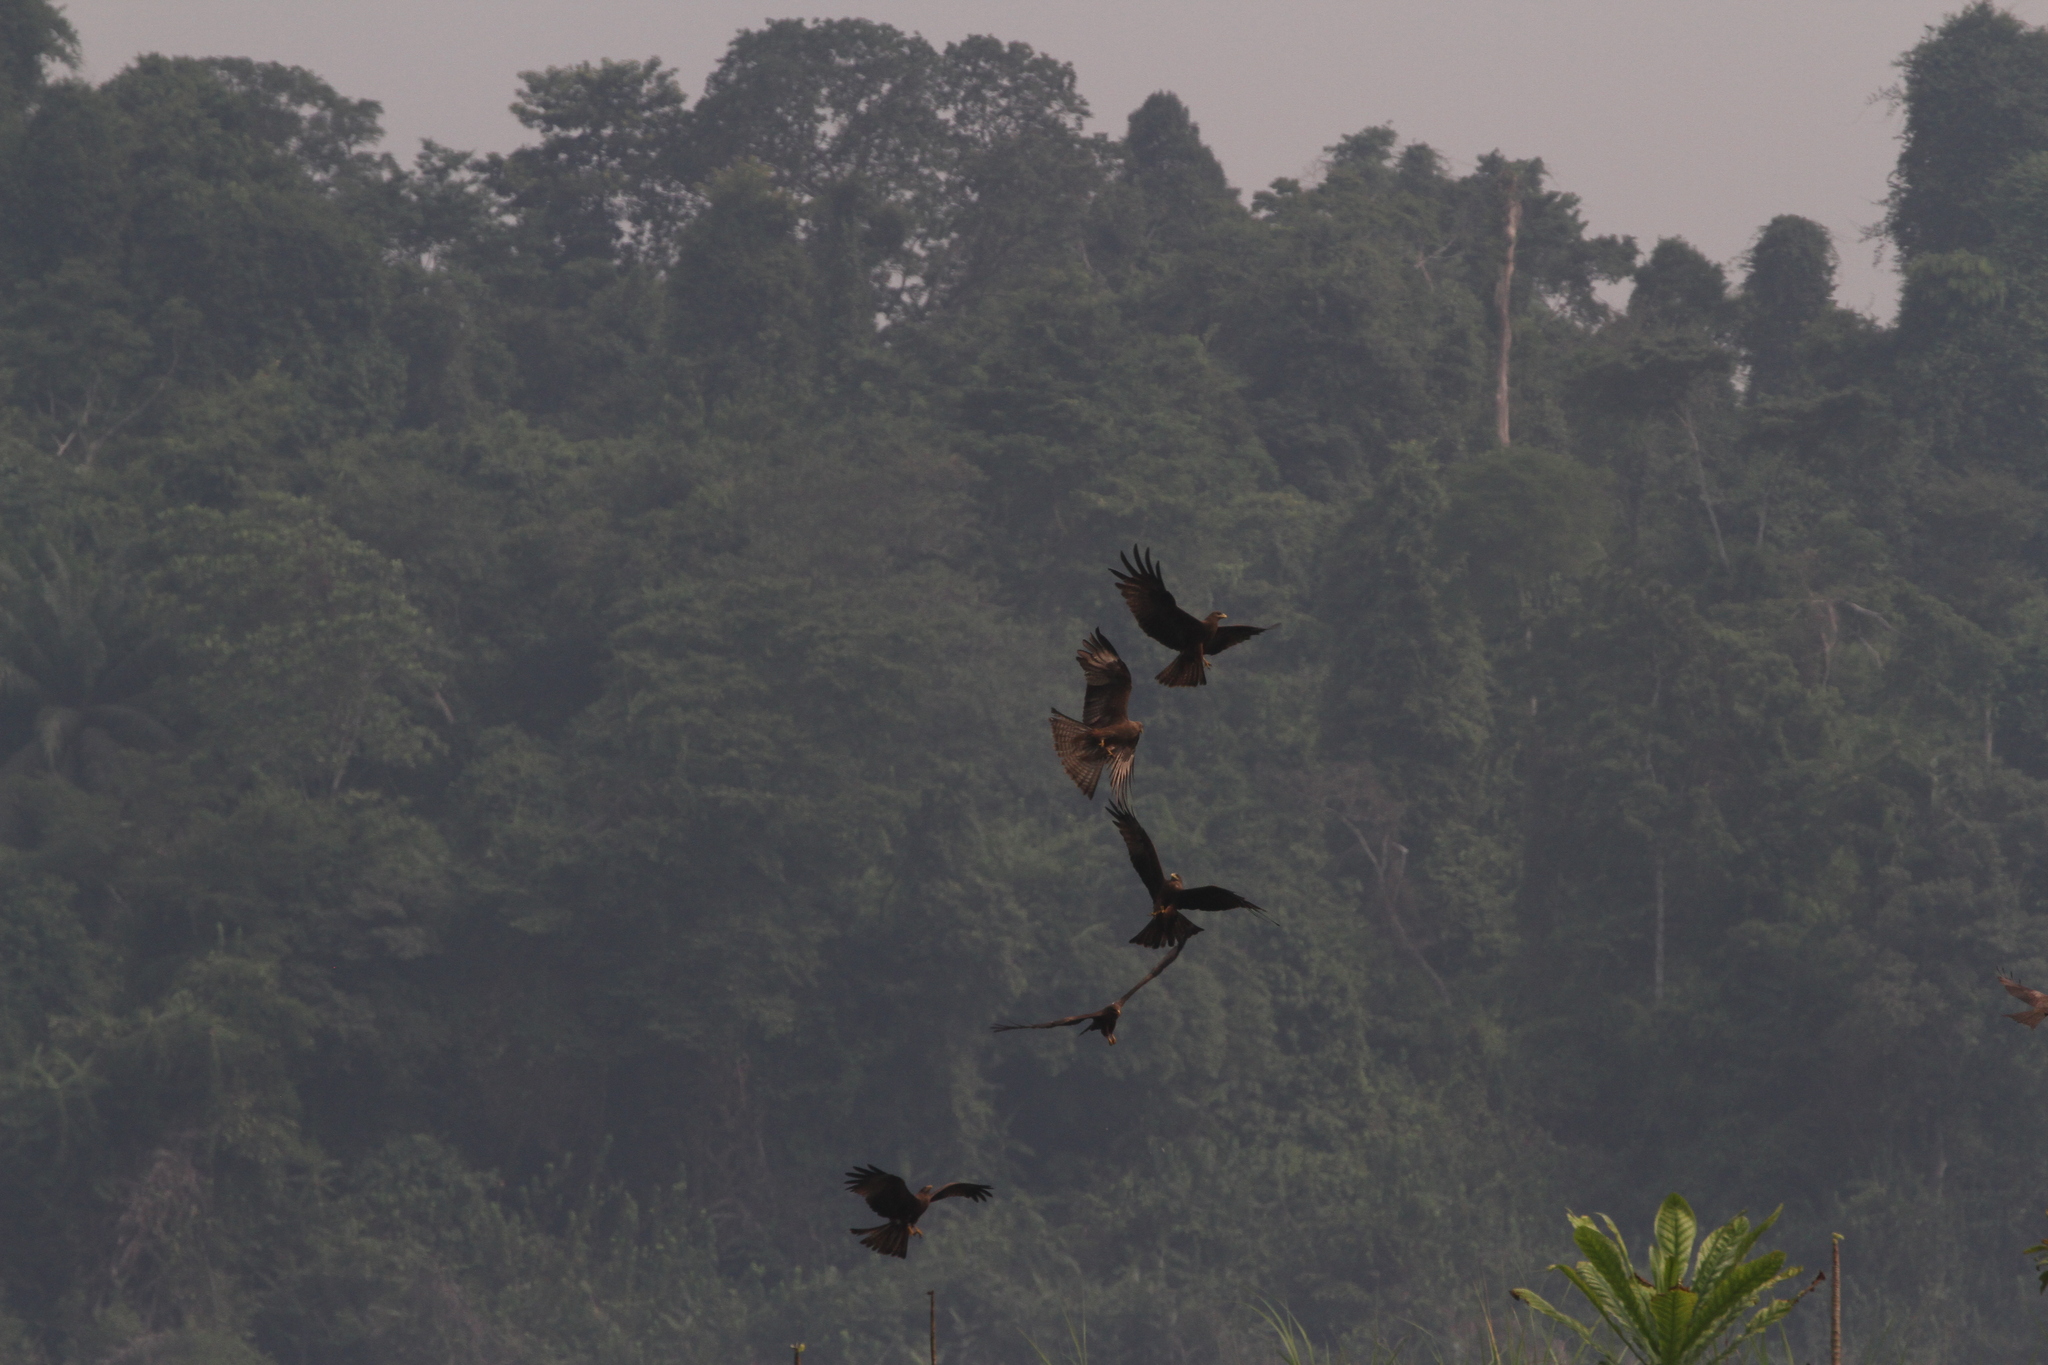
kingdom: Animalia
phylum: Chordata
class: Aves
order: Accipitriformes
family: Accipitridae
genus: Milvus
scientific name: Milvus migrans
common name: Black kite
